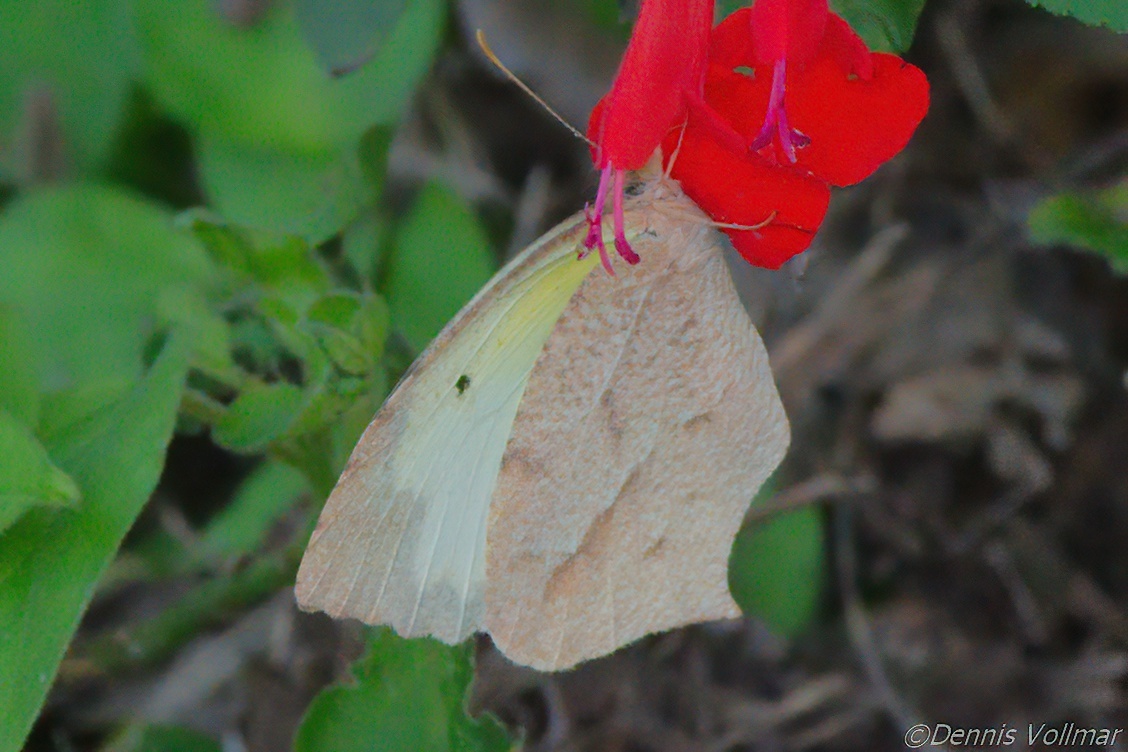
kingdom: Animalia
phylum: Arthropoda
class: Insecta
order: Lepidoptera
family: Pieridae
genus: Abaeis
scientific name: Abaeis mexicana
